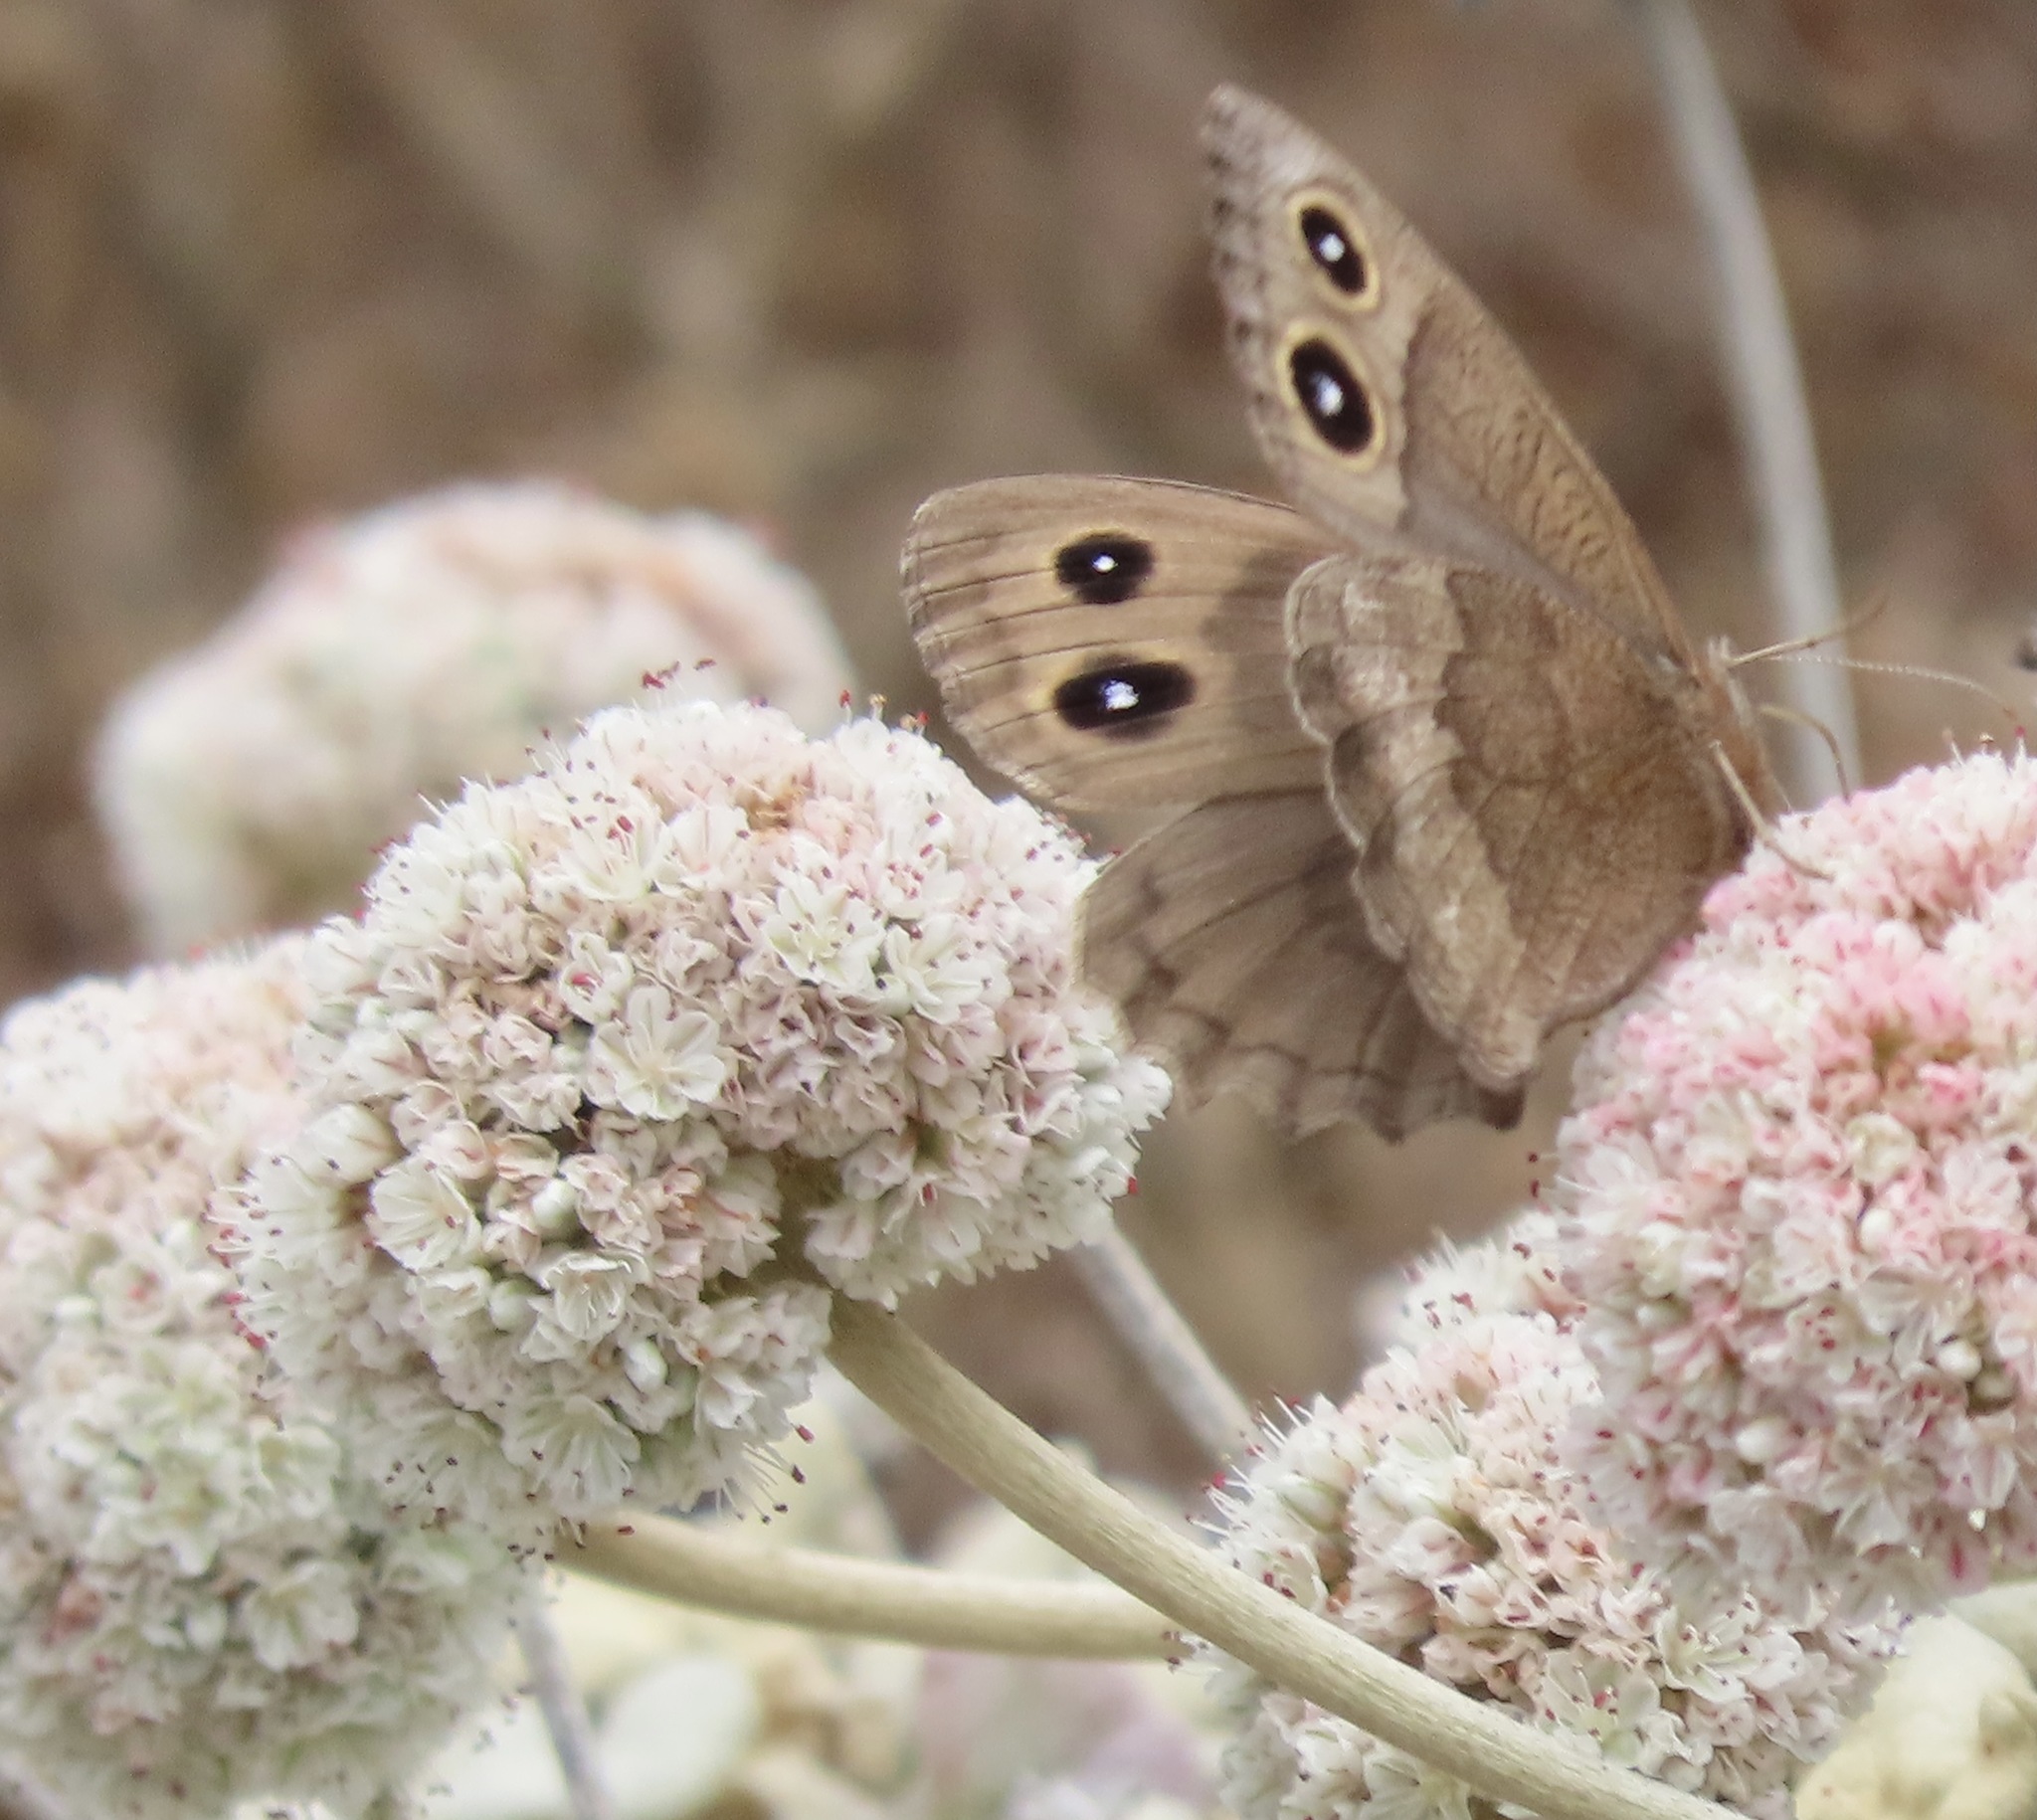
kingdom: Animalia
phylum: Arthropoda
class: Insecta
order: Lepidoptera
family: Nymphalidae
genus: Cercyonis
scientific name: Cercyonis pegala
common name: Common wood-nymph
